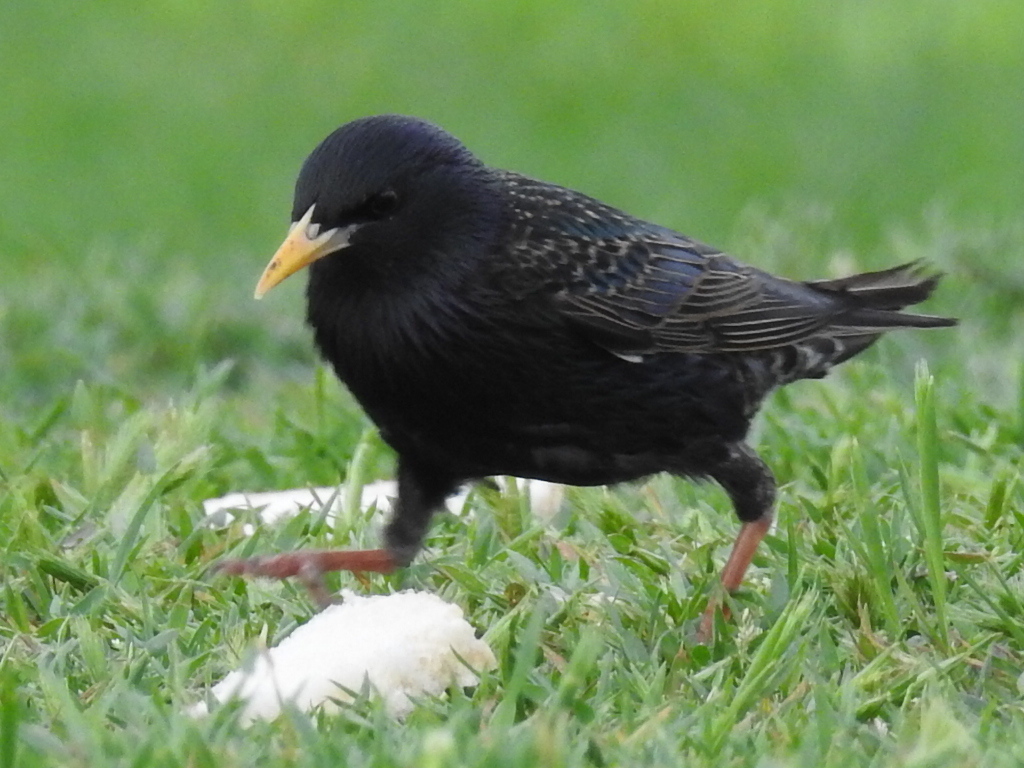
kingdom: Animalia
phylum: Chordata
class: Aves
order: Passeriformes
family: Sturnidae
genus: Sturnus
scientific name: Sturnus vulgaris
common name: Common starling
